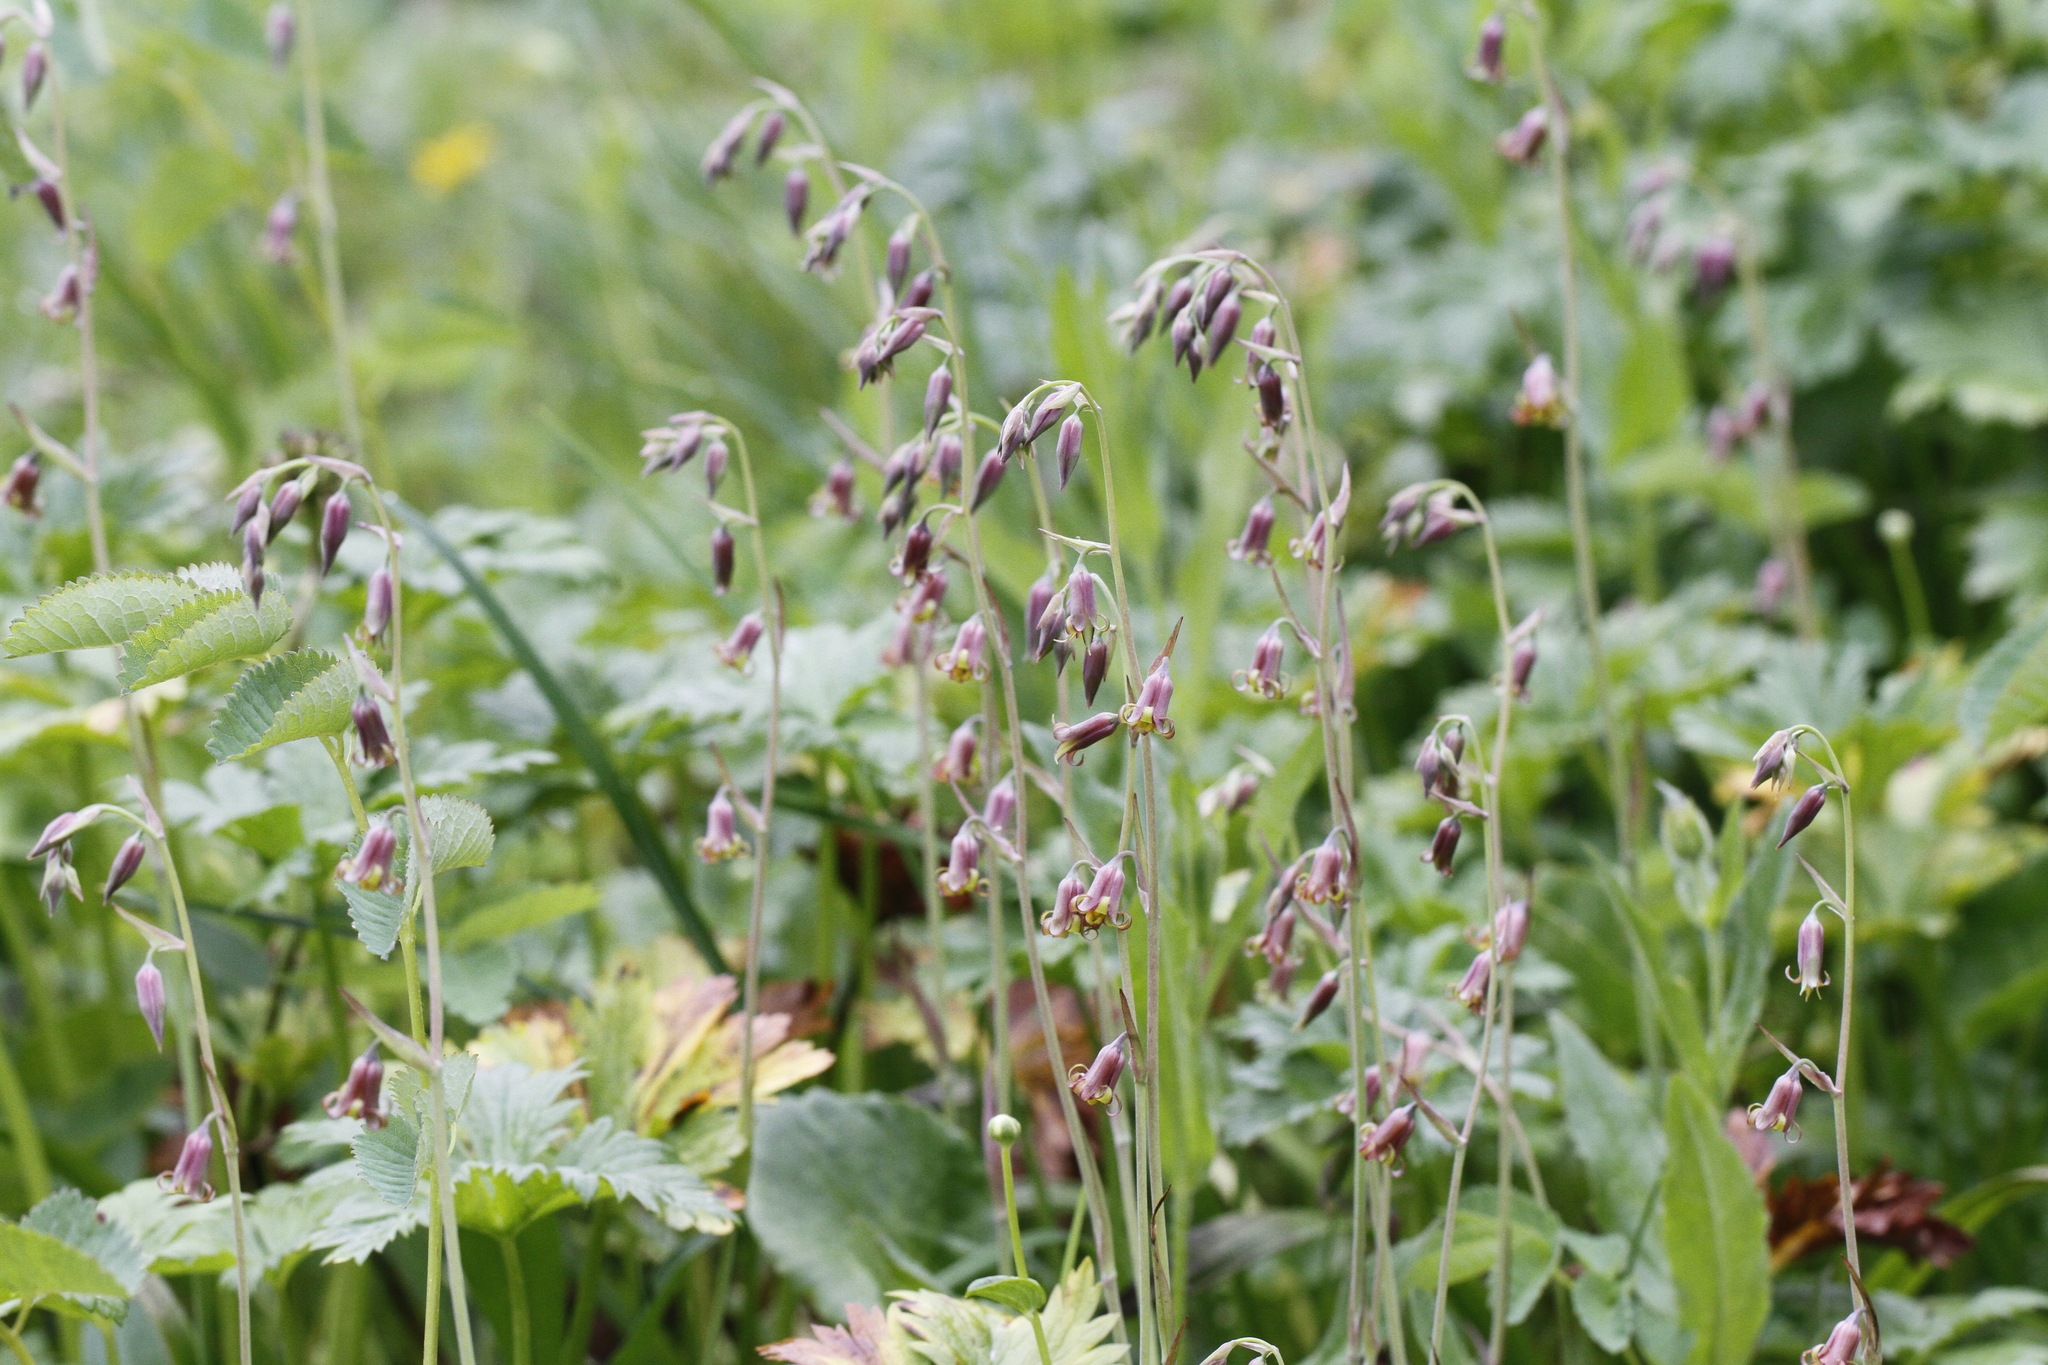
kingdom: Plantae
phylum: Tracheophyta
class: Liliopsida
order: Liliales
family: Melanthiaceae
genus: Anticlea
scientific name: Anticlea occidentalis
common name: Bronze-bells
